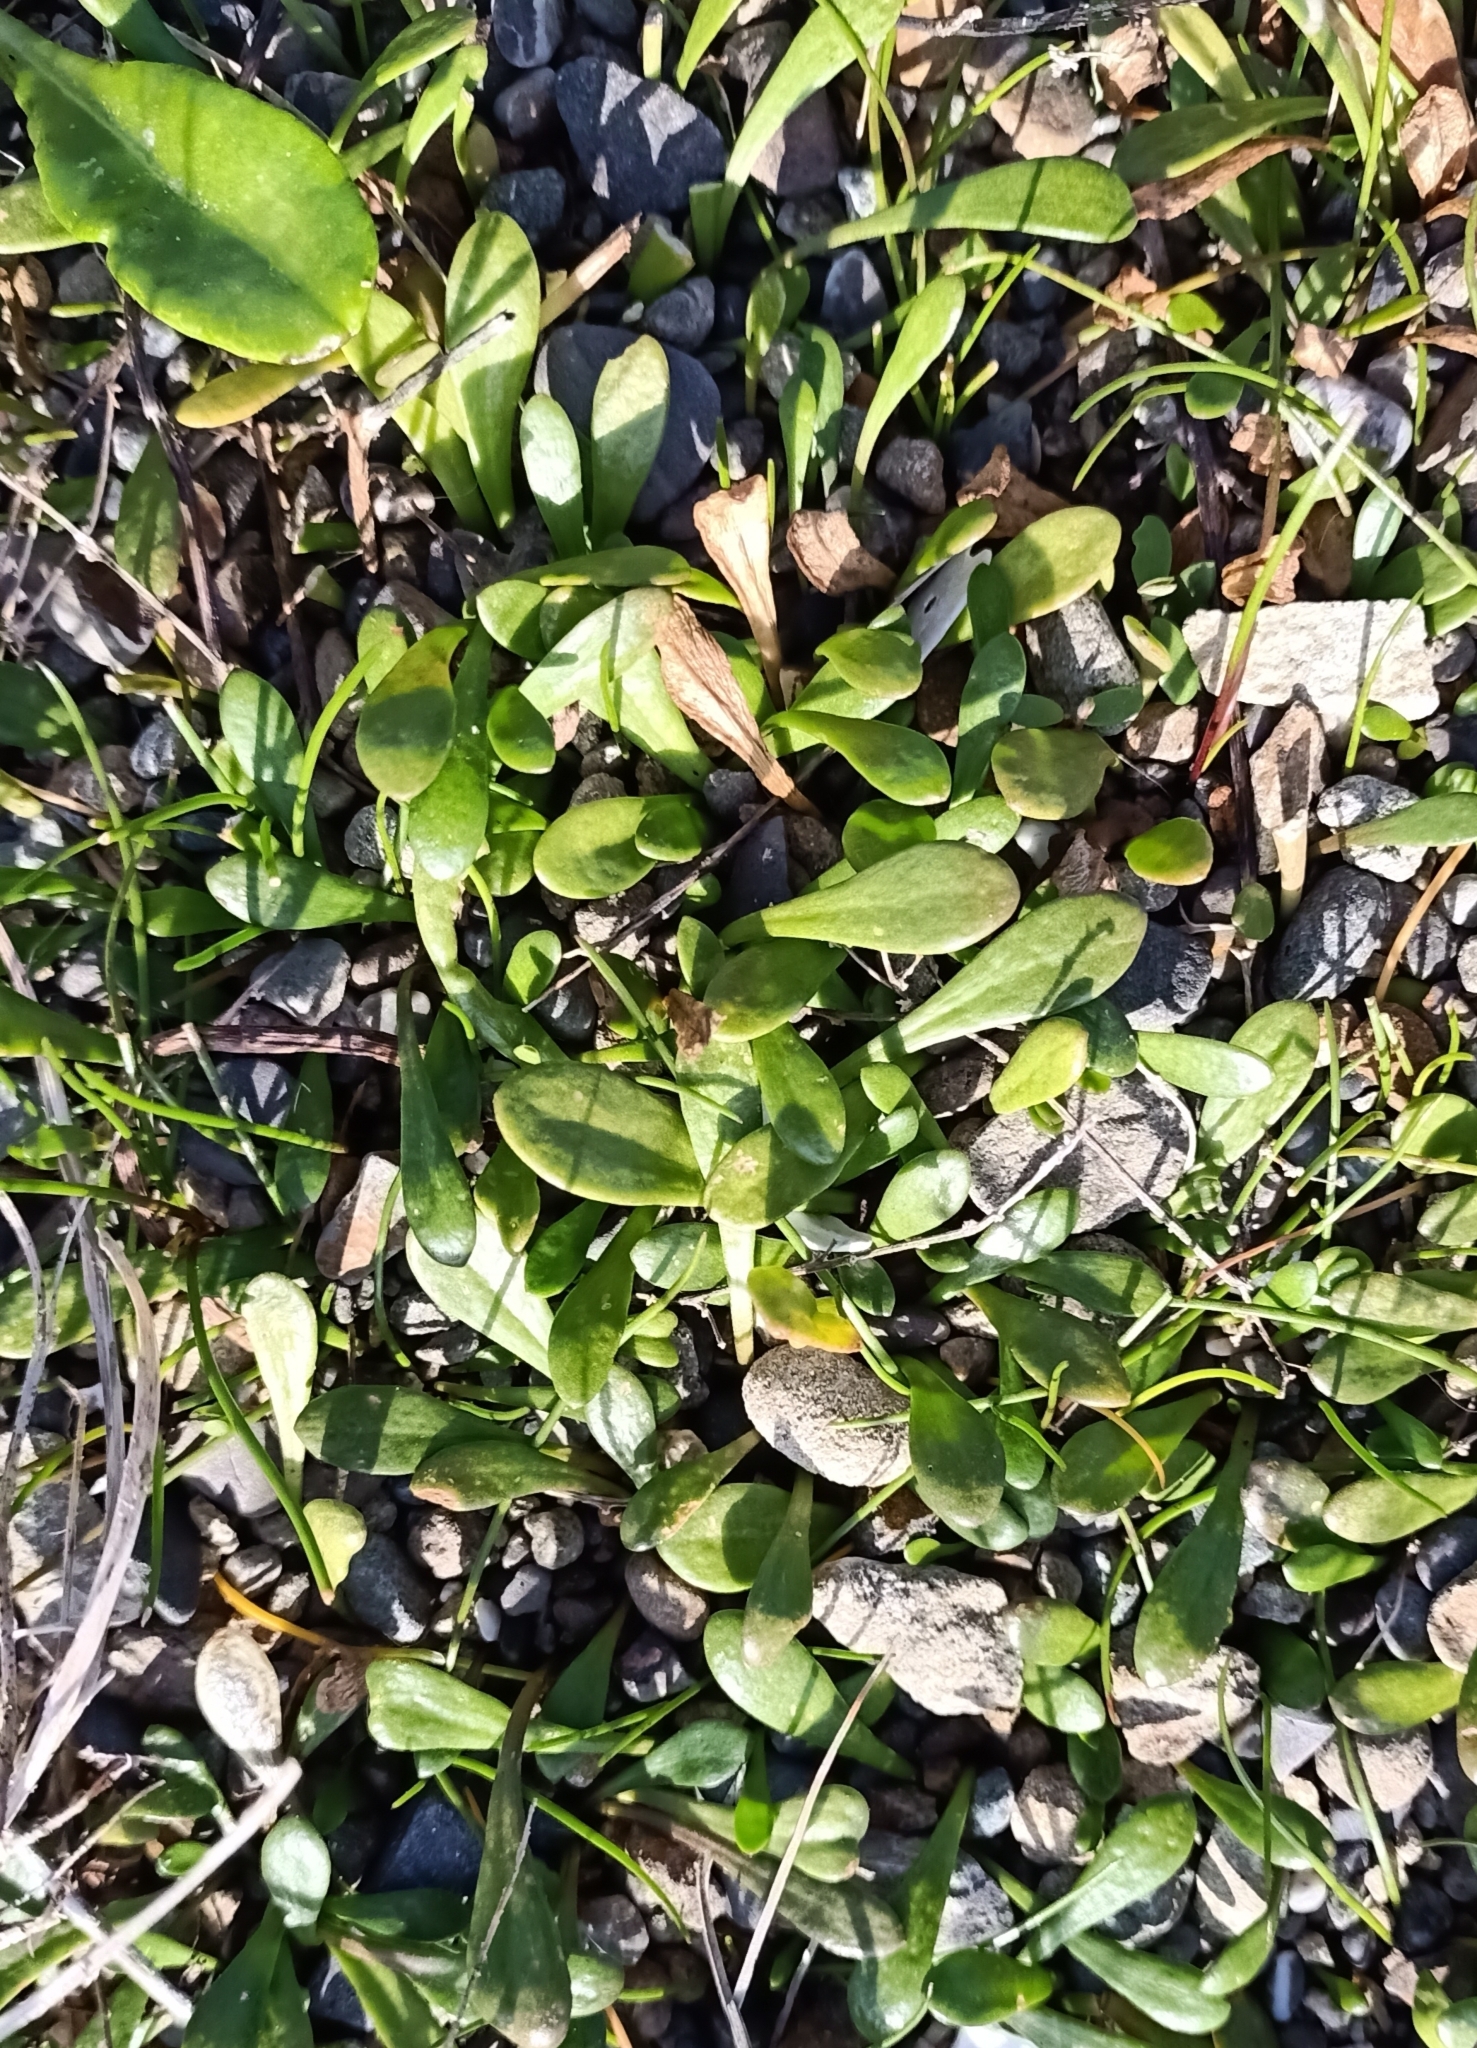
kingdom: Plantae
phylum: Tracheophyta
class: Magnoliopsida
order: Asterales
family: Goodeniaceae
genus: Goodenia
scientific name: Goodenia radicans
